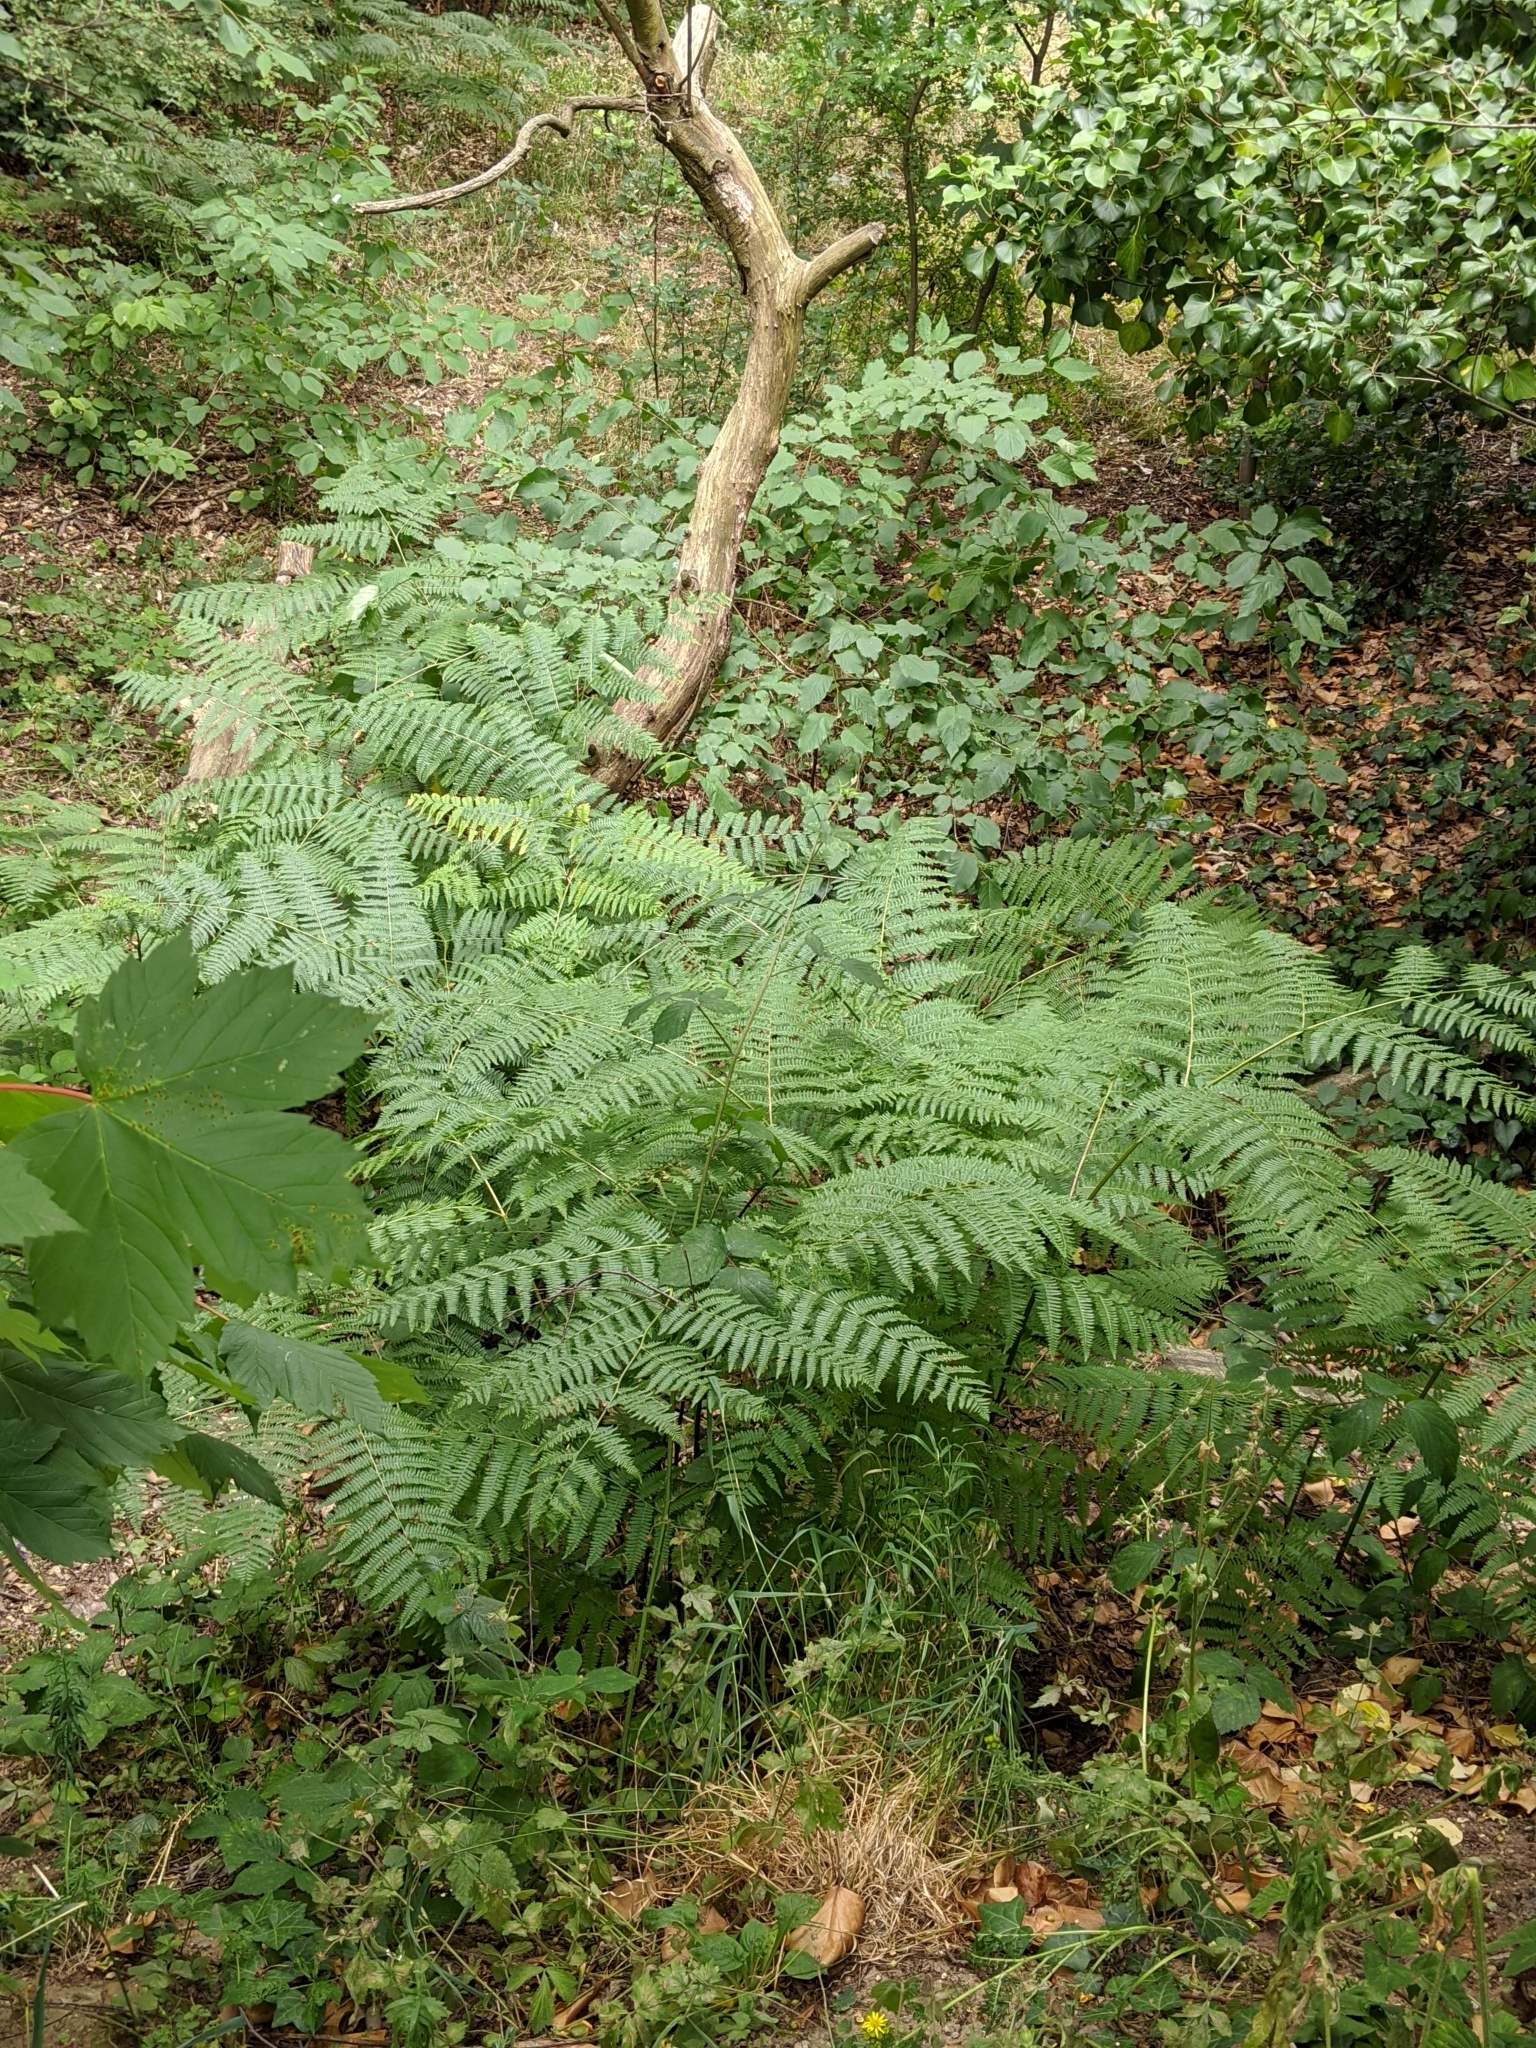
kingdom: Plantae
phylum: Tracheophyta
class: Polypodiopsida
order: Polypodiales
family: Dennstaedtiaceae
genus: Pteridium
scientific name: Pteridium aquilinum
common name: Bracken
